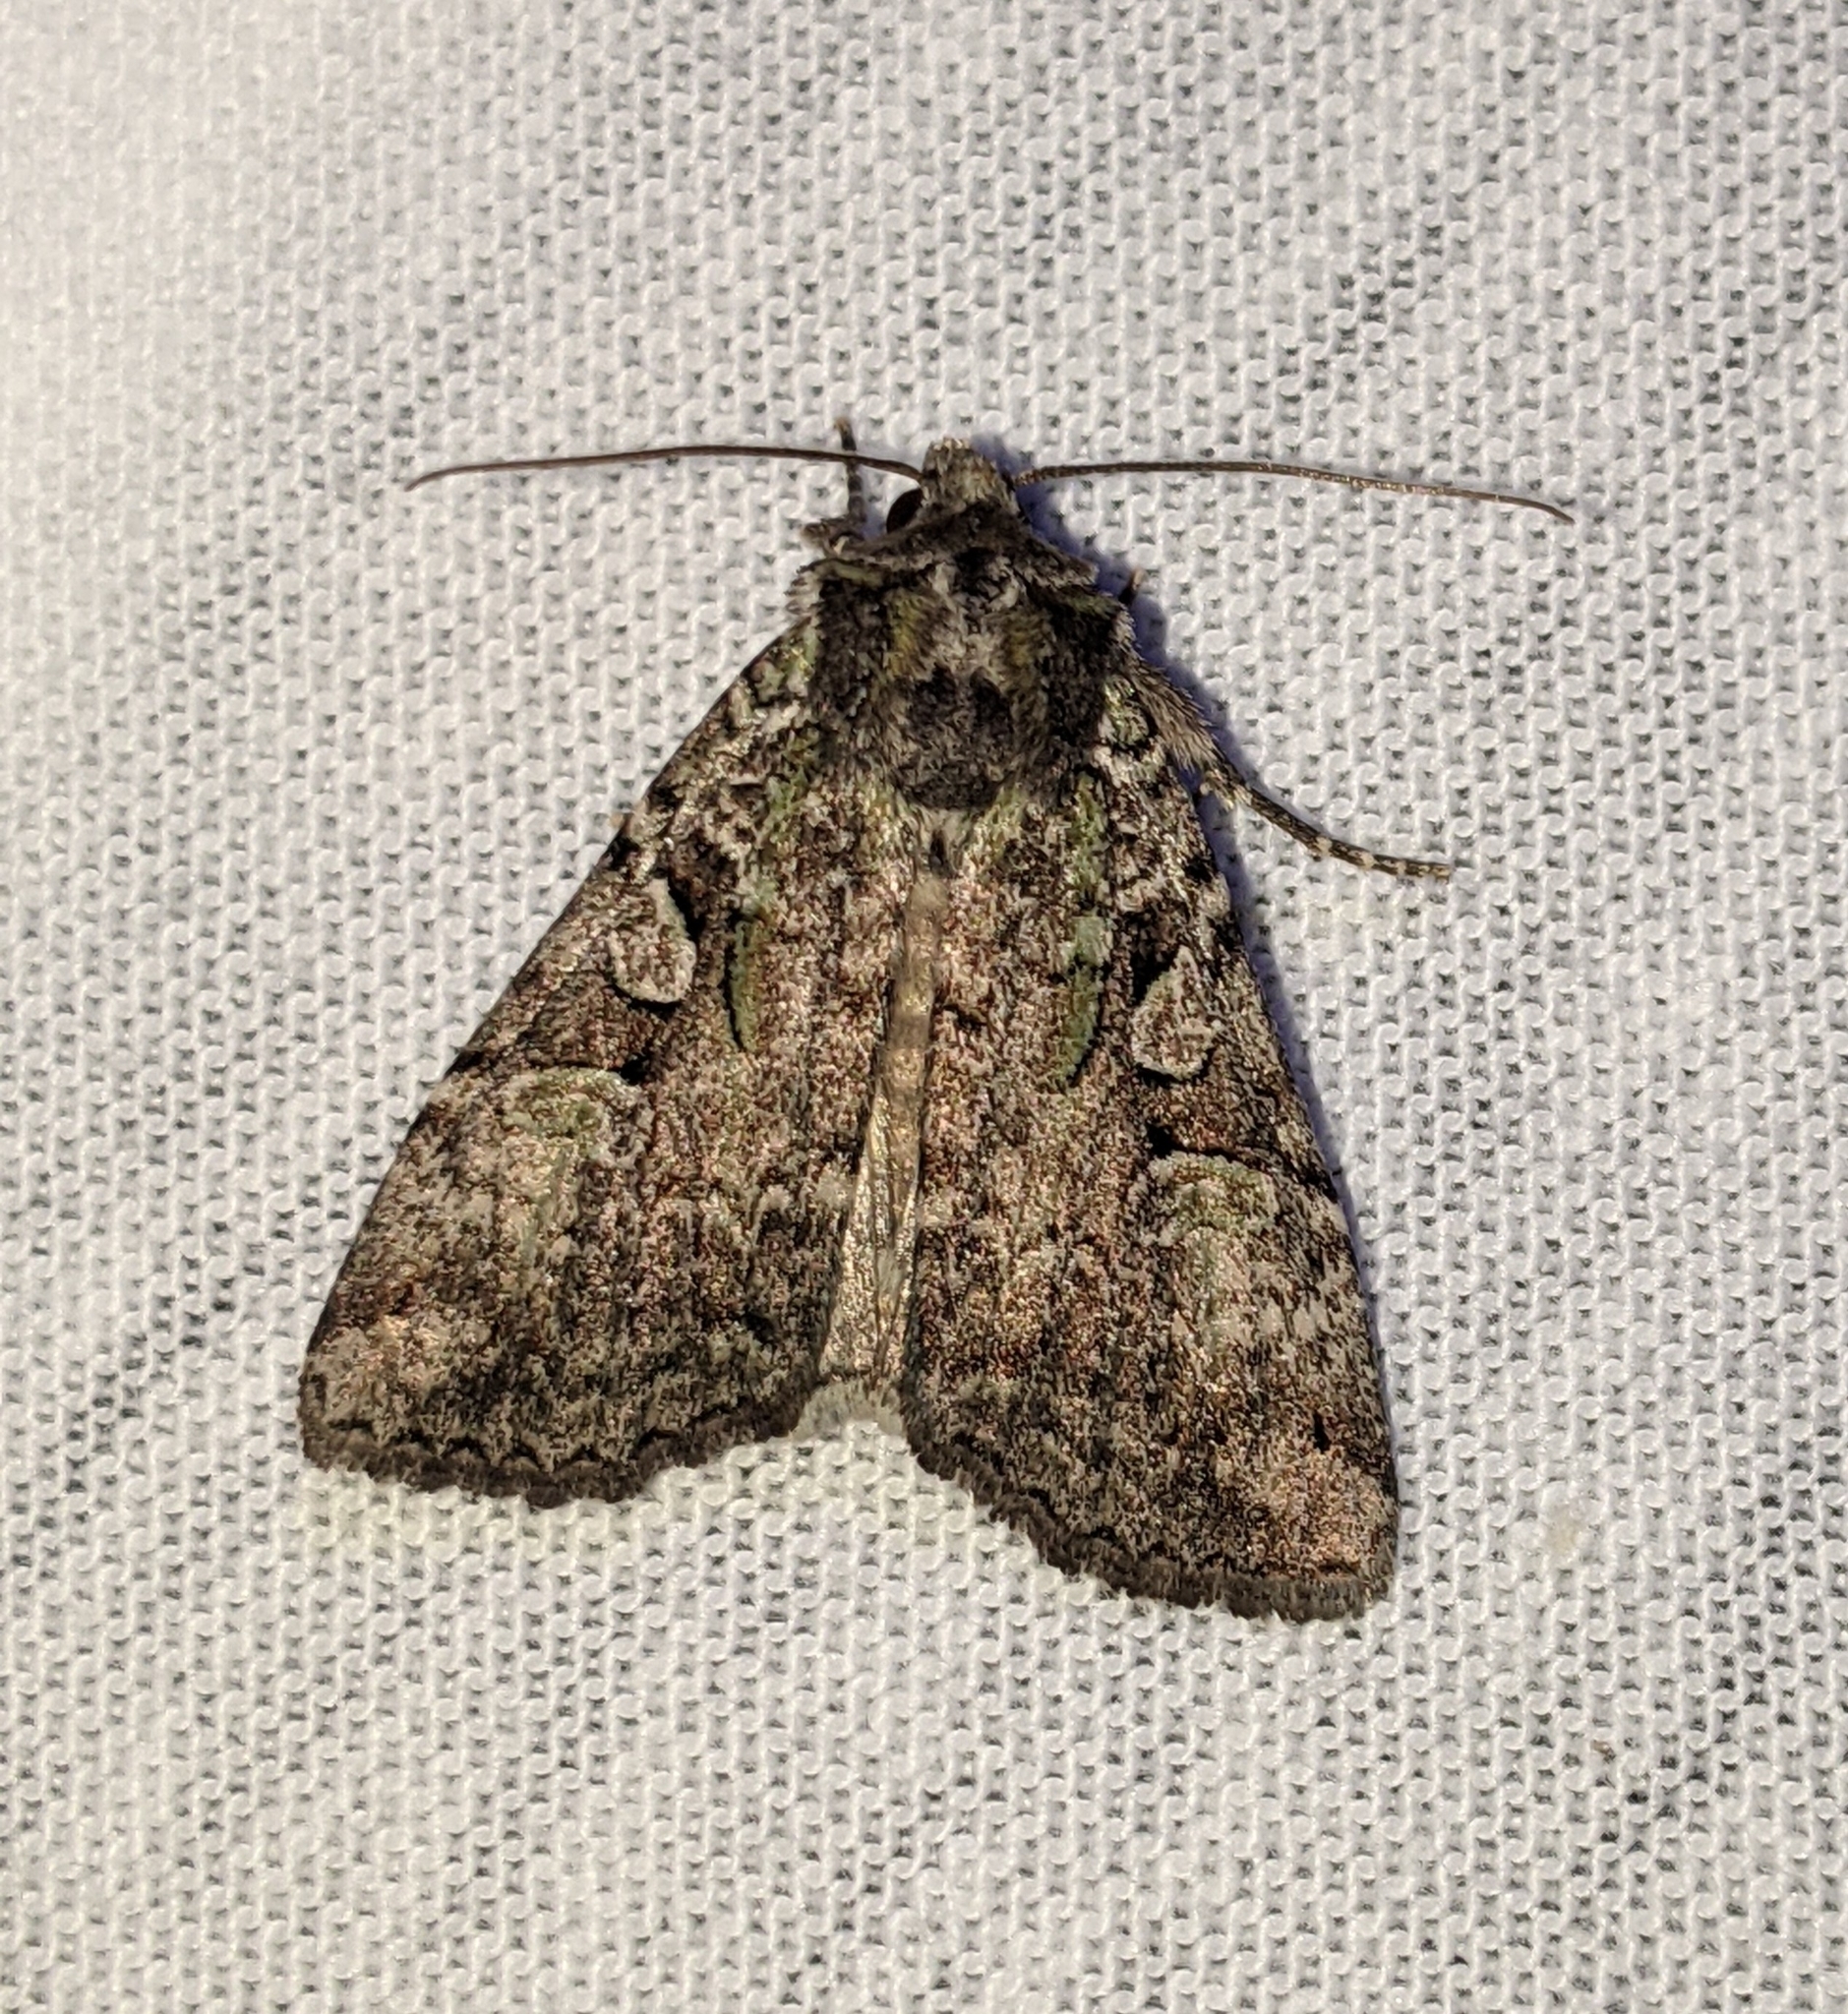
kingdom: Animalia
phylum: Arthropoda
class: Insecta
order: Lepidoptera
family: Noctuidae
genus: Anaplectoides
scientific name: Anaplectoides pressus
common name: Dappled dart
